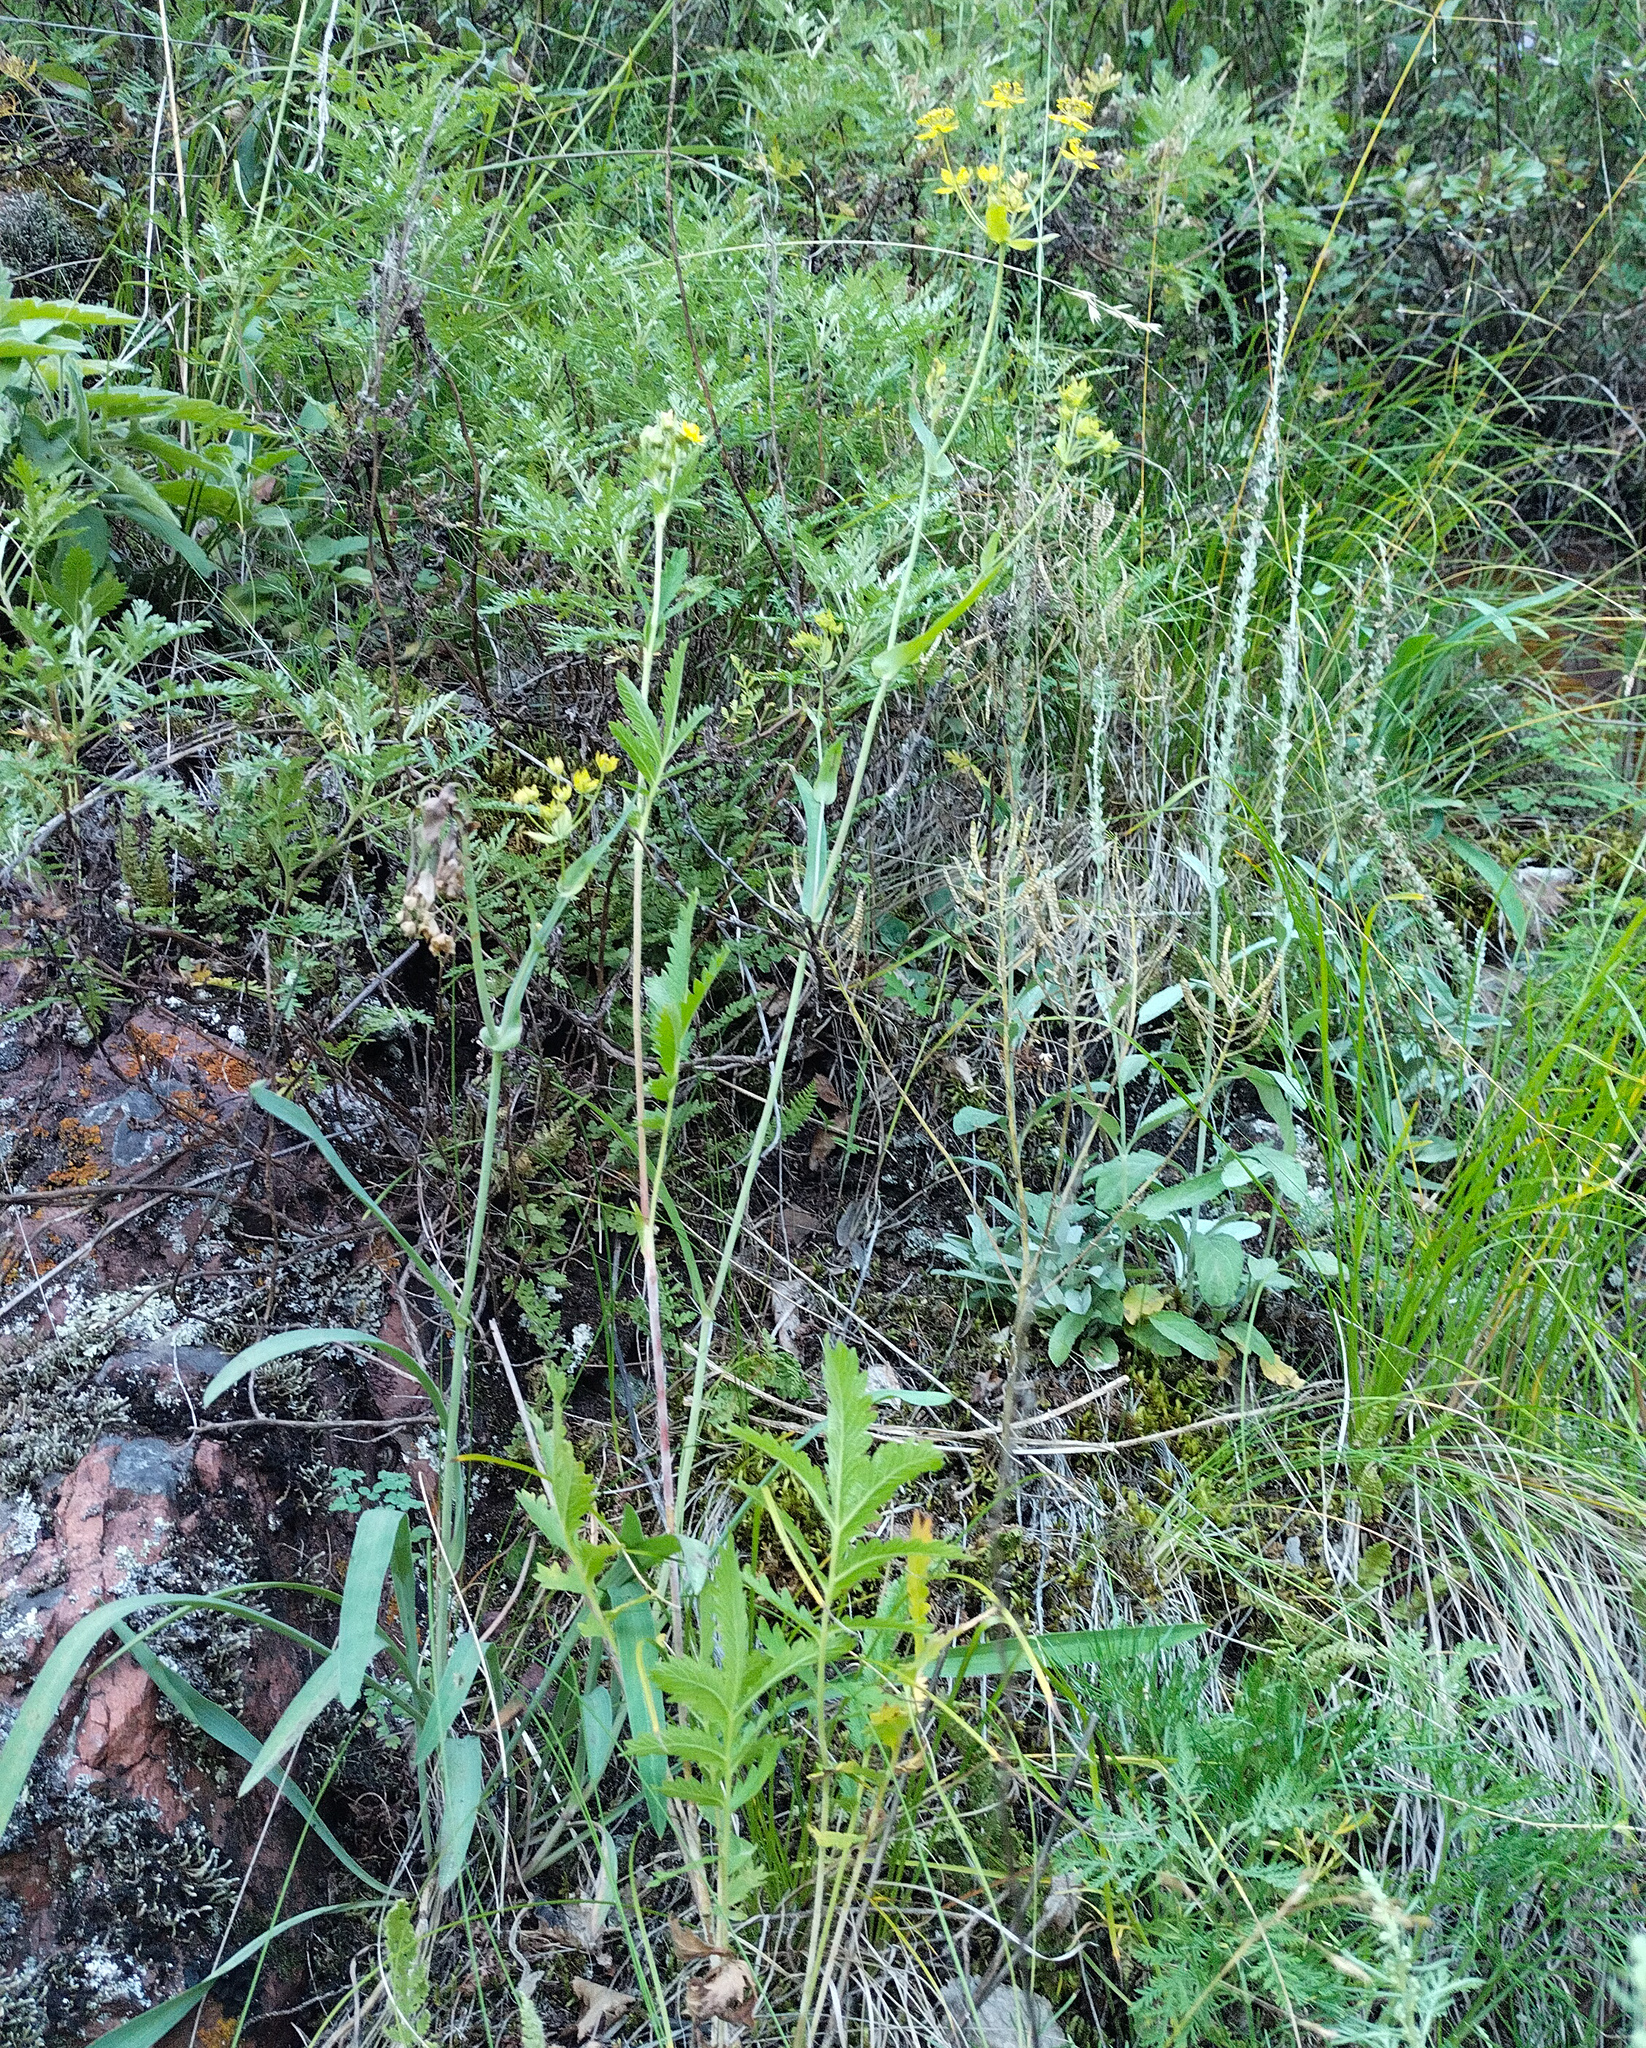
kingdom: Plantae
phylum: Tracheophyta
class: Magnoliopsida
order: Rosales
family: Rosaceae
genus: Potentilla
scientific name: Potentilla longifolia
